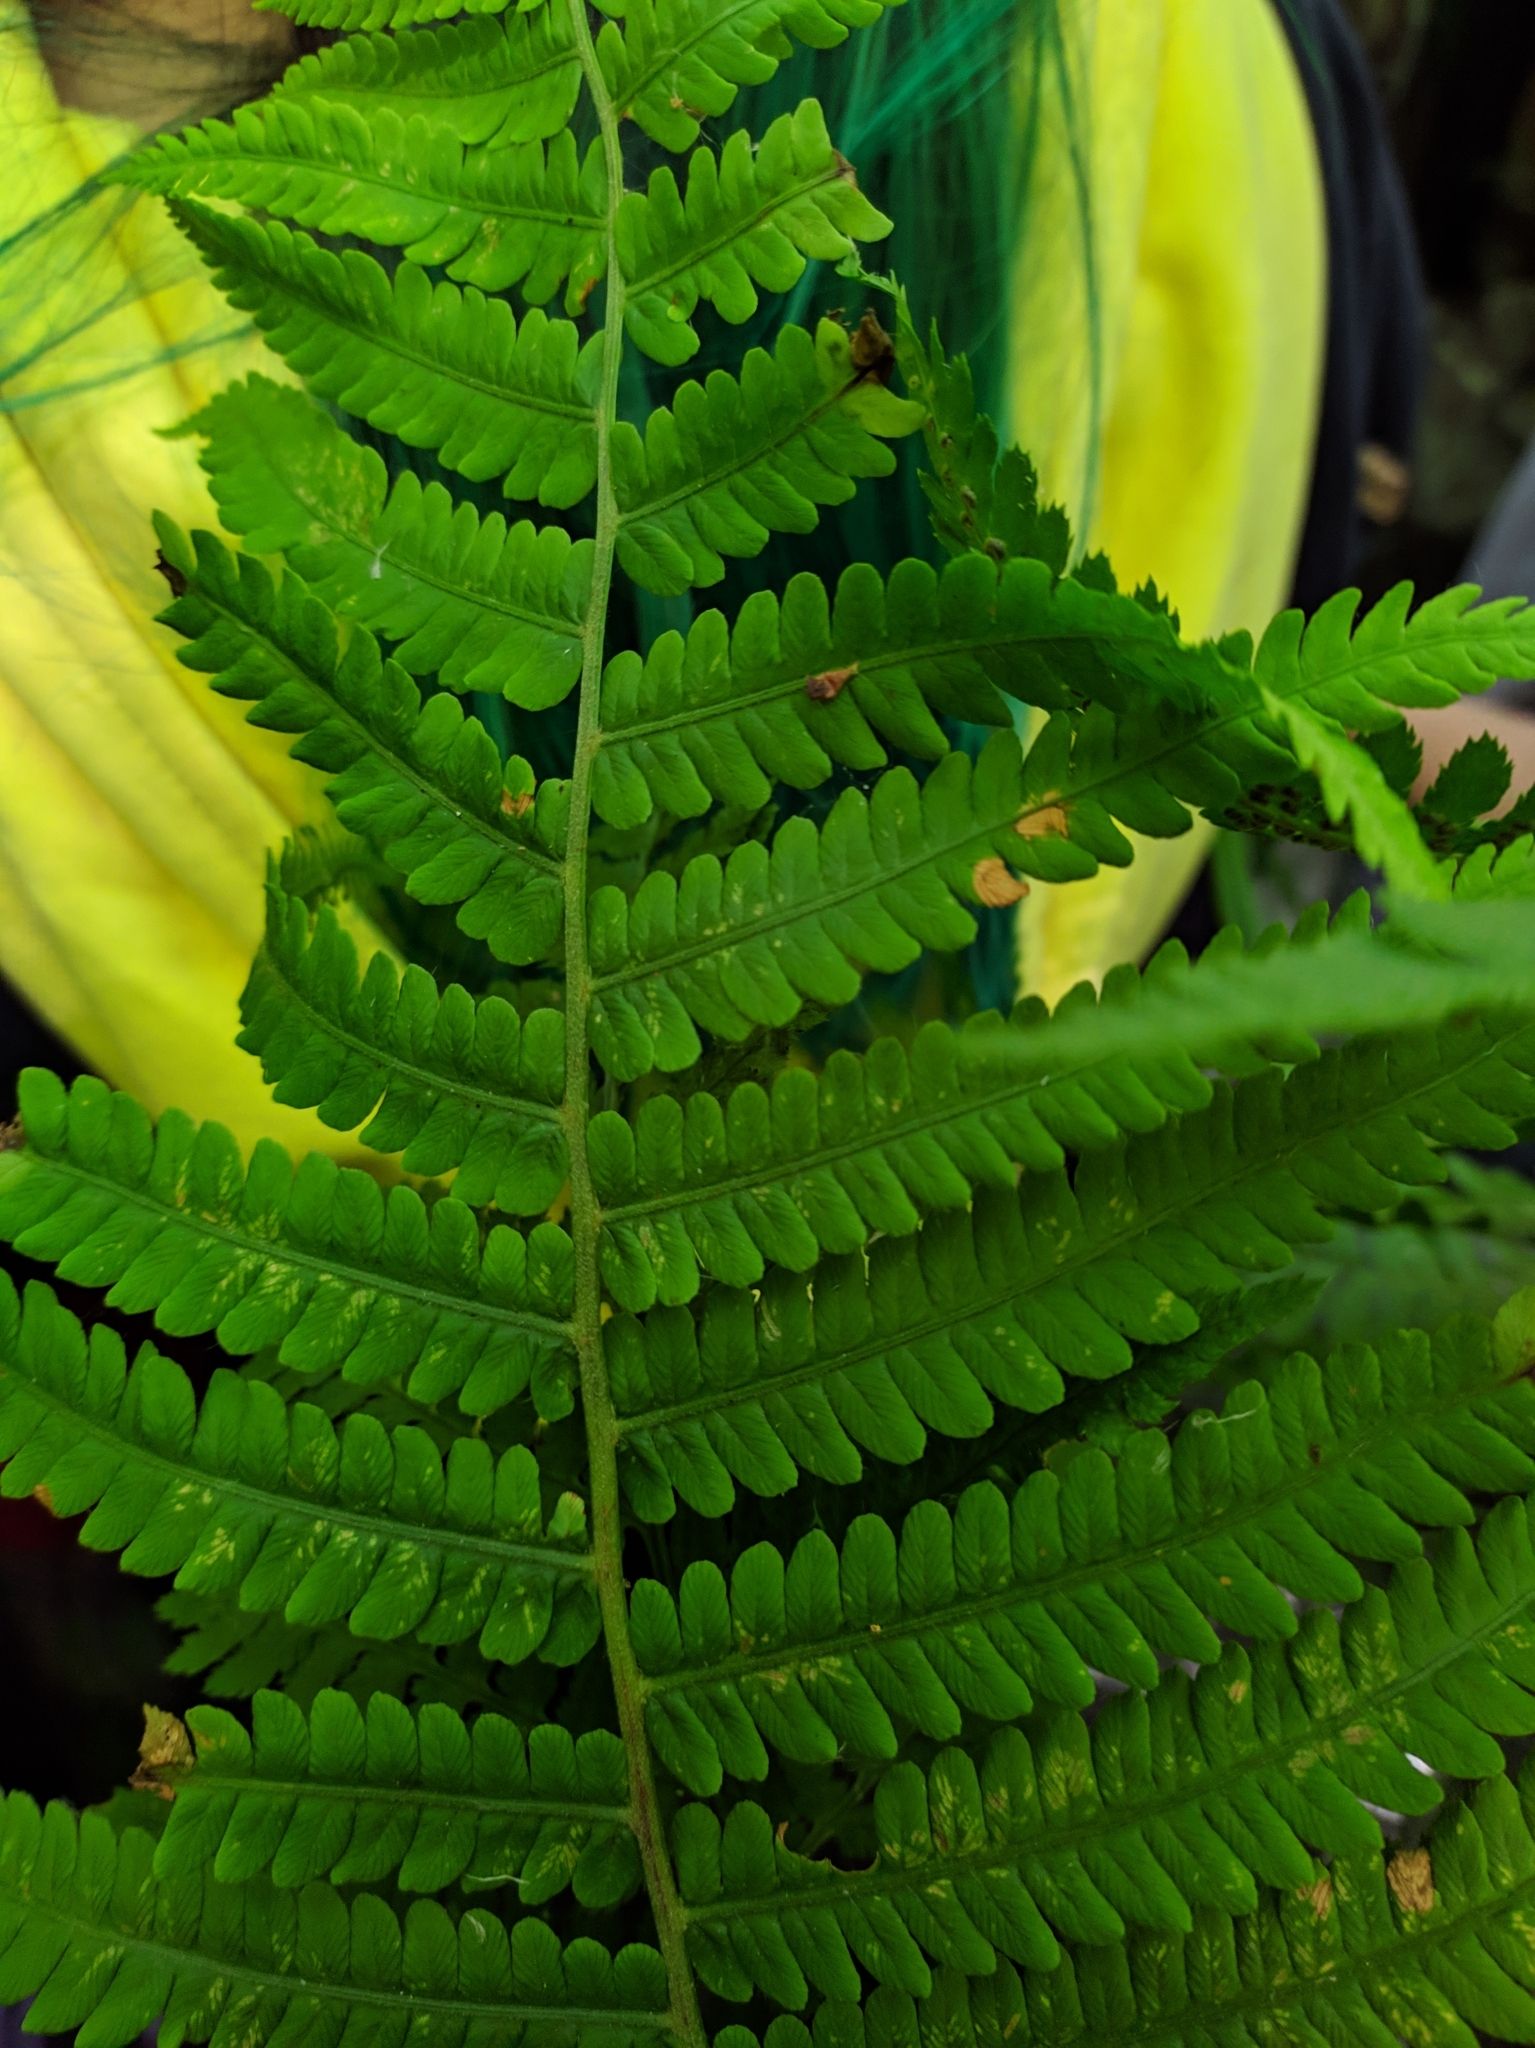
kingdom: Plantae
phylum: Tracheophyta
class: Polypodiopsida
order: Polypodiales
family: Dryopteridaceae
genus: Dryopteris
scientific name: Dryopteris filix-mas
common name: Male fern
